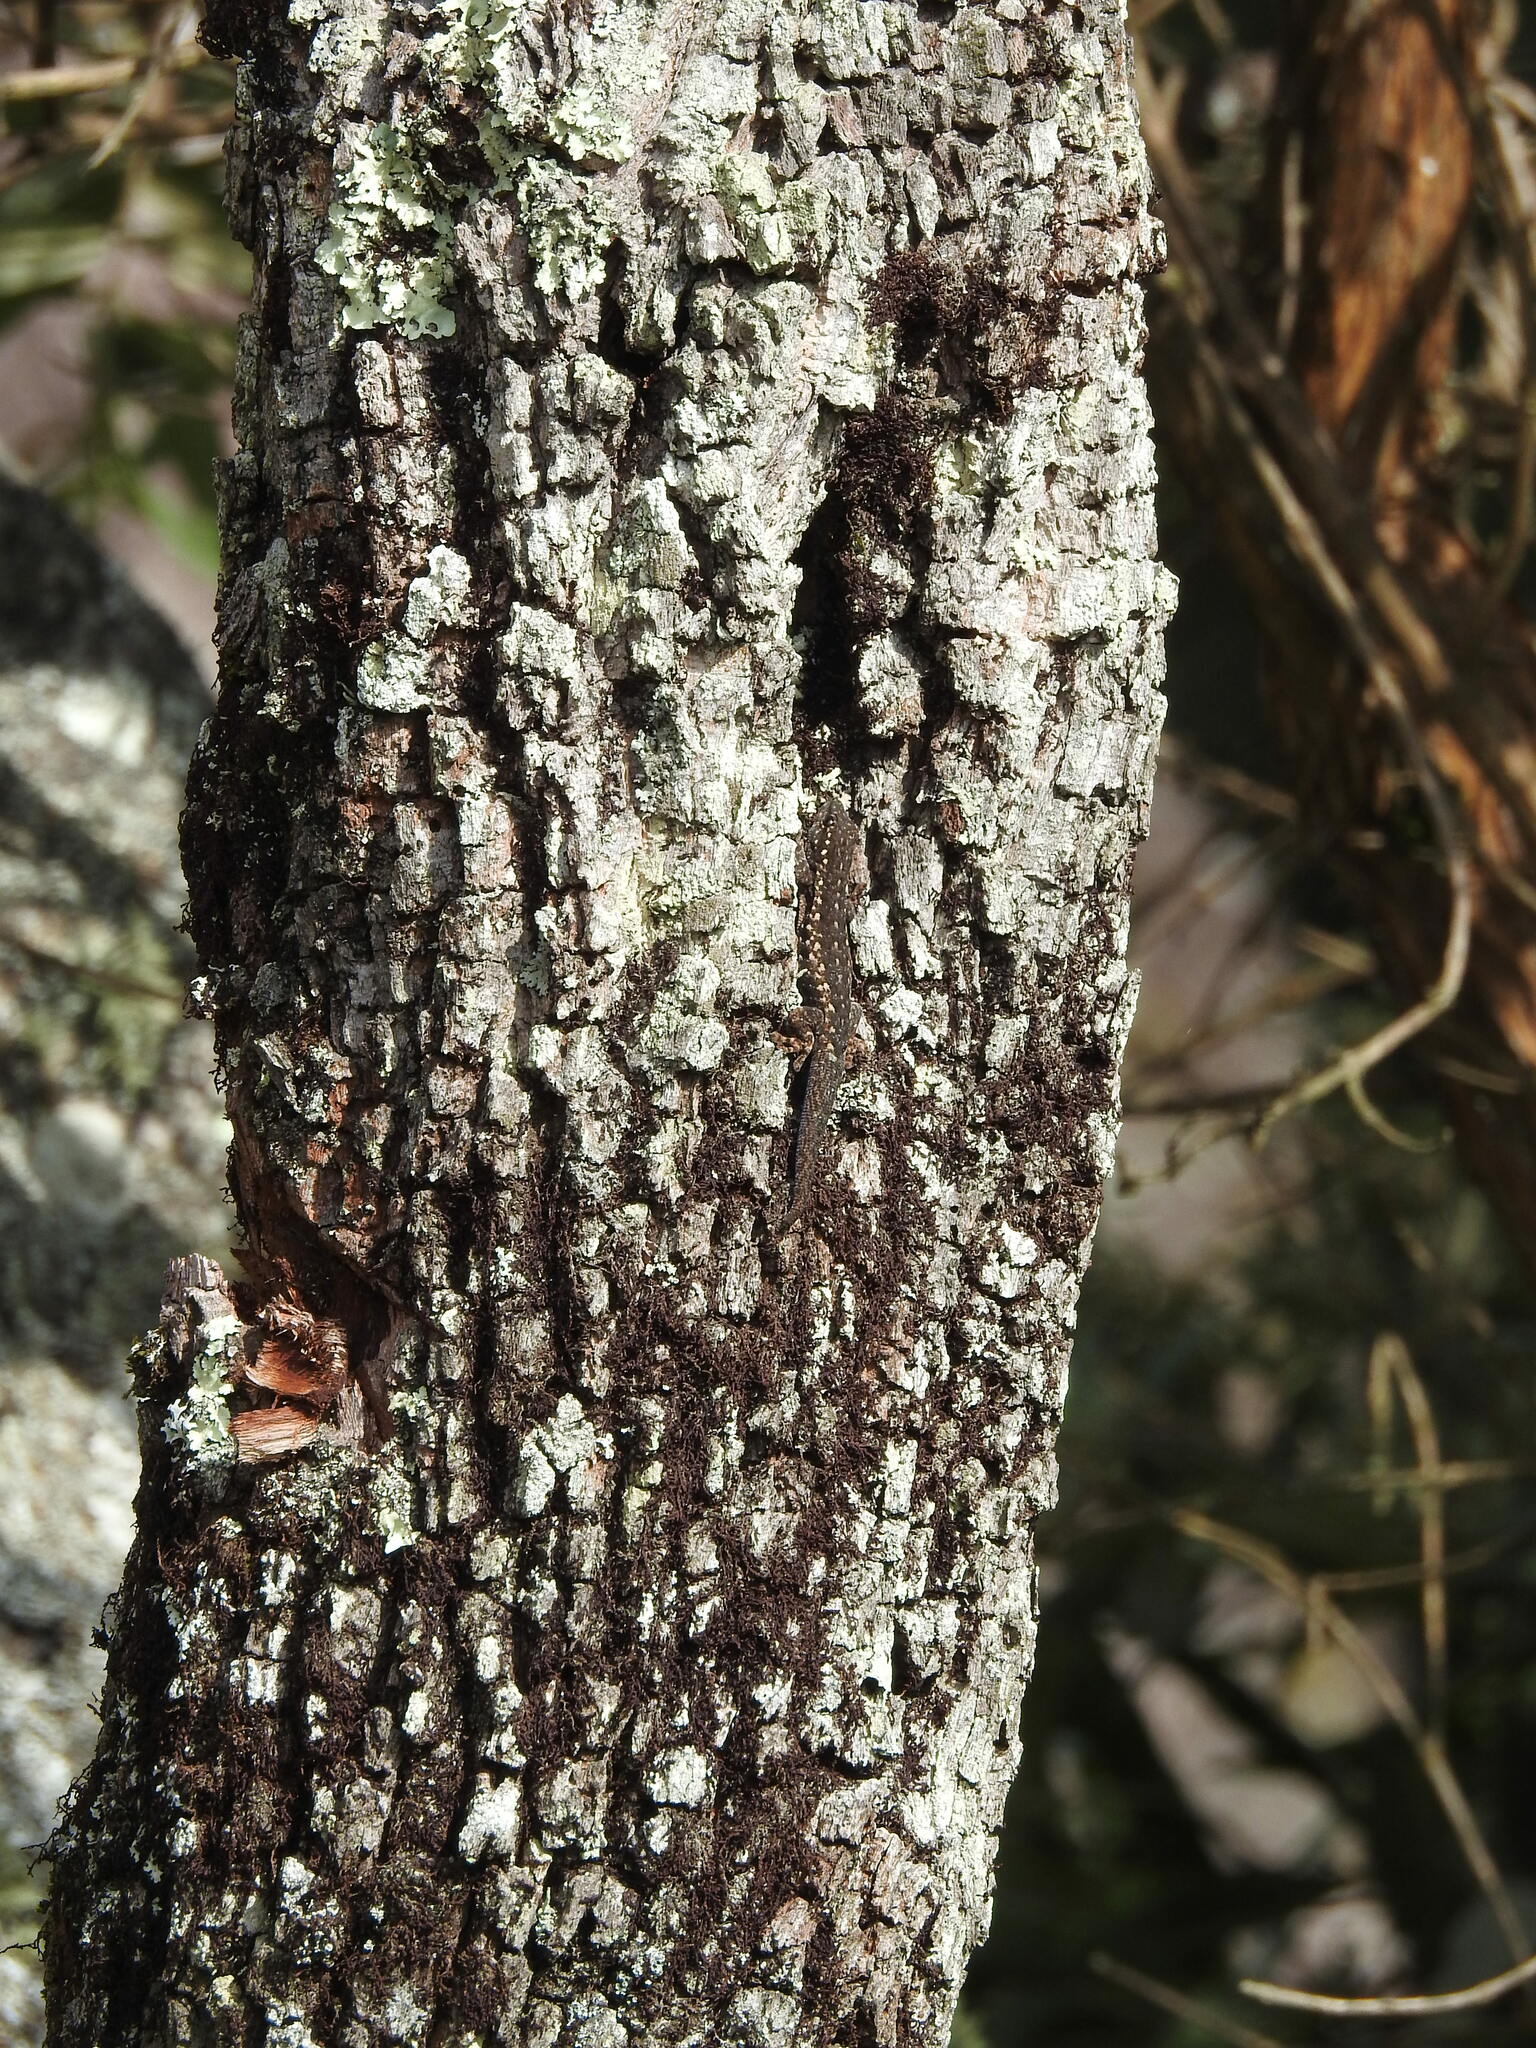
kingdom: Animalia
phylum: Chordata
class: Squamata
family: Gekkonidae
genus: Lygodactylus
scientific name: Lygodactylus angularis
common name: Angulate dwarf gecko
